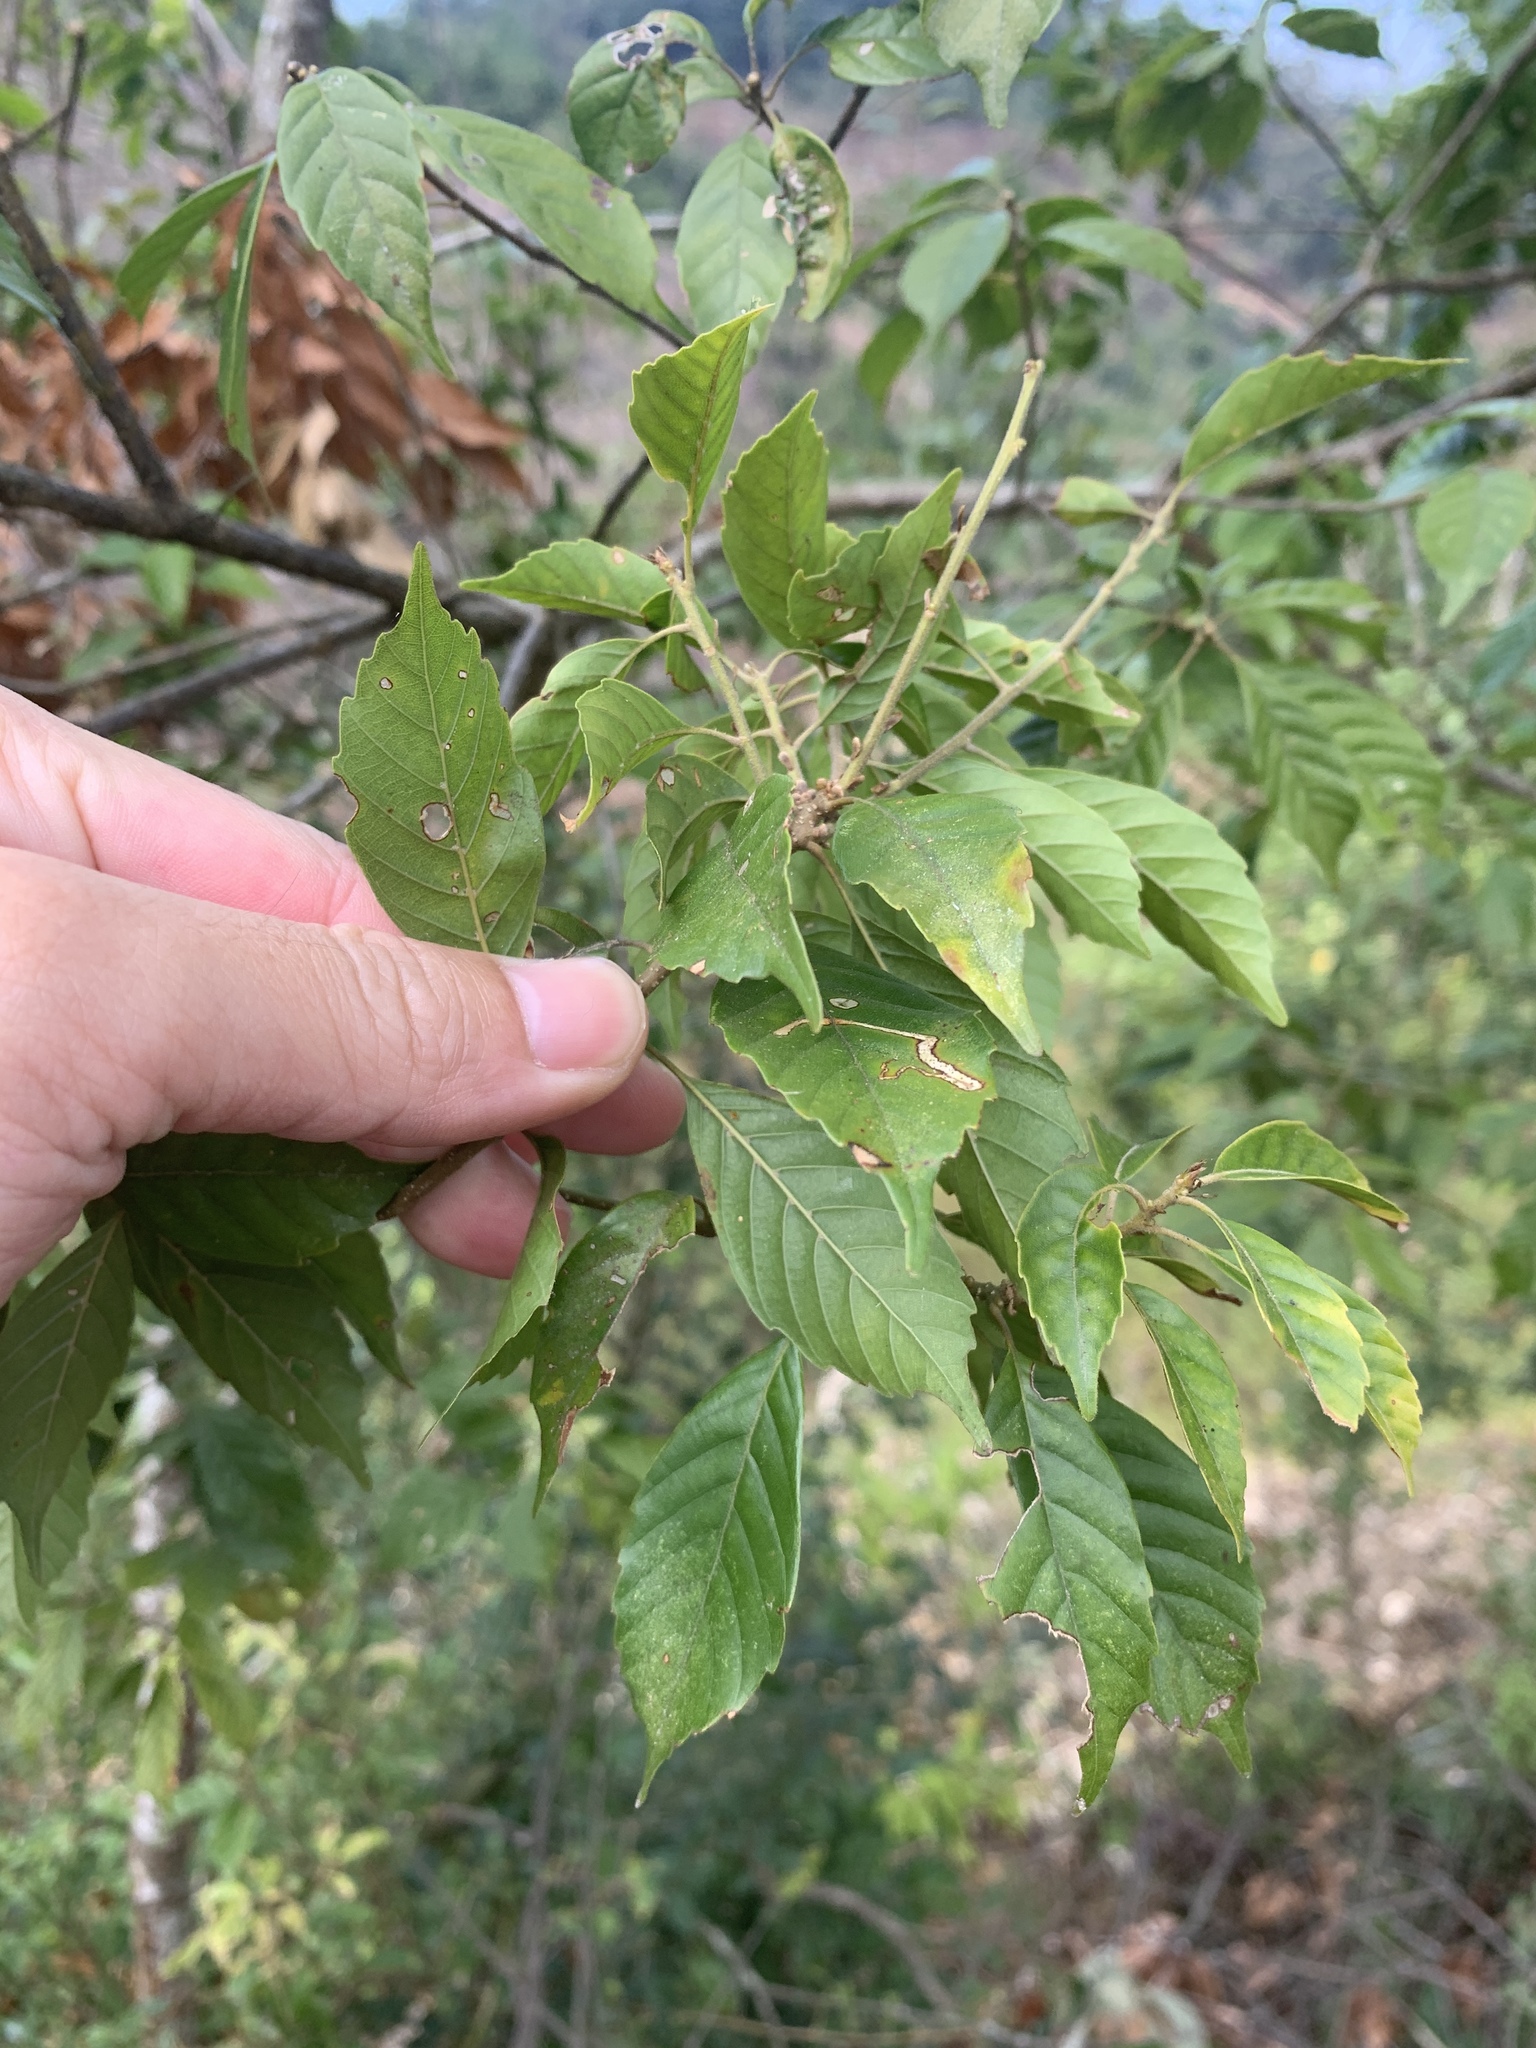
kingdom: Plantae
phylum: Tracheophyta
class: Magnoliopsida
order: Fagales
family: Fagaceae
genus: Lithocarpus
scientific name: Lithocarpus konishii
